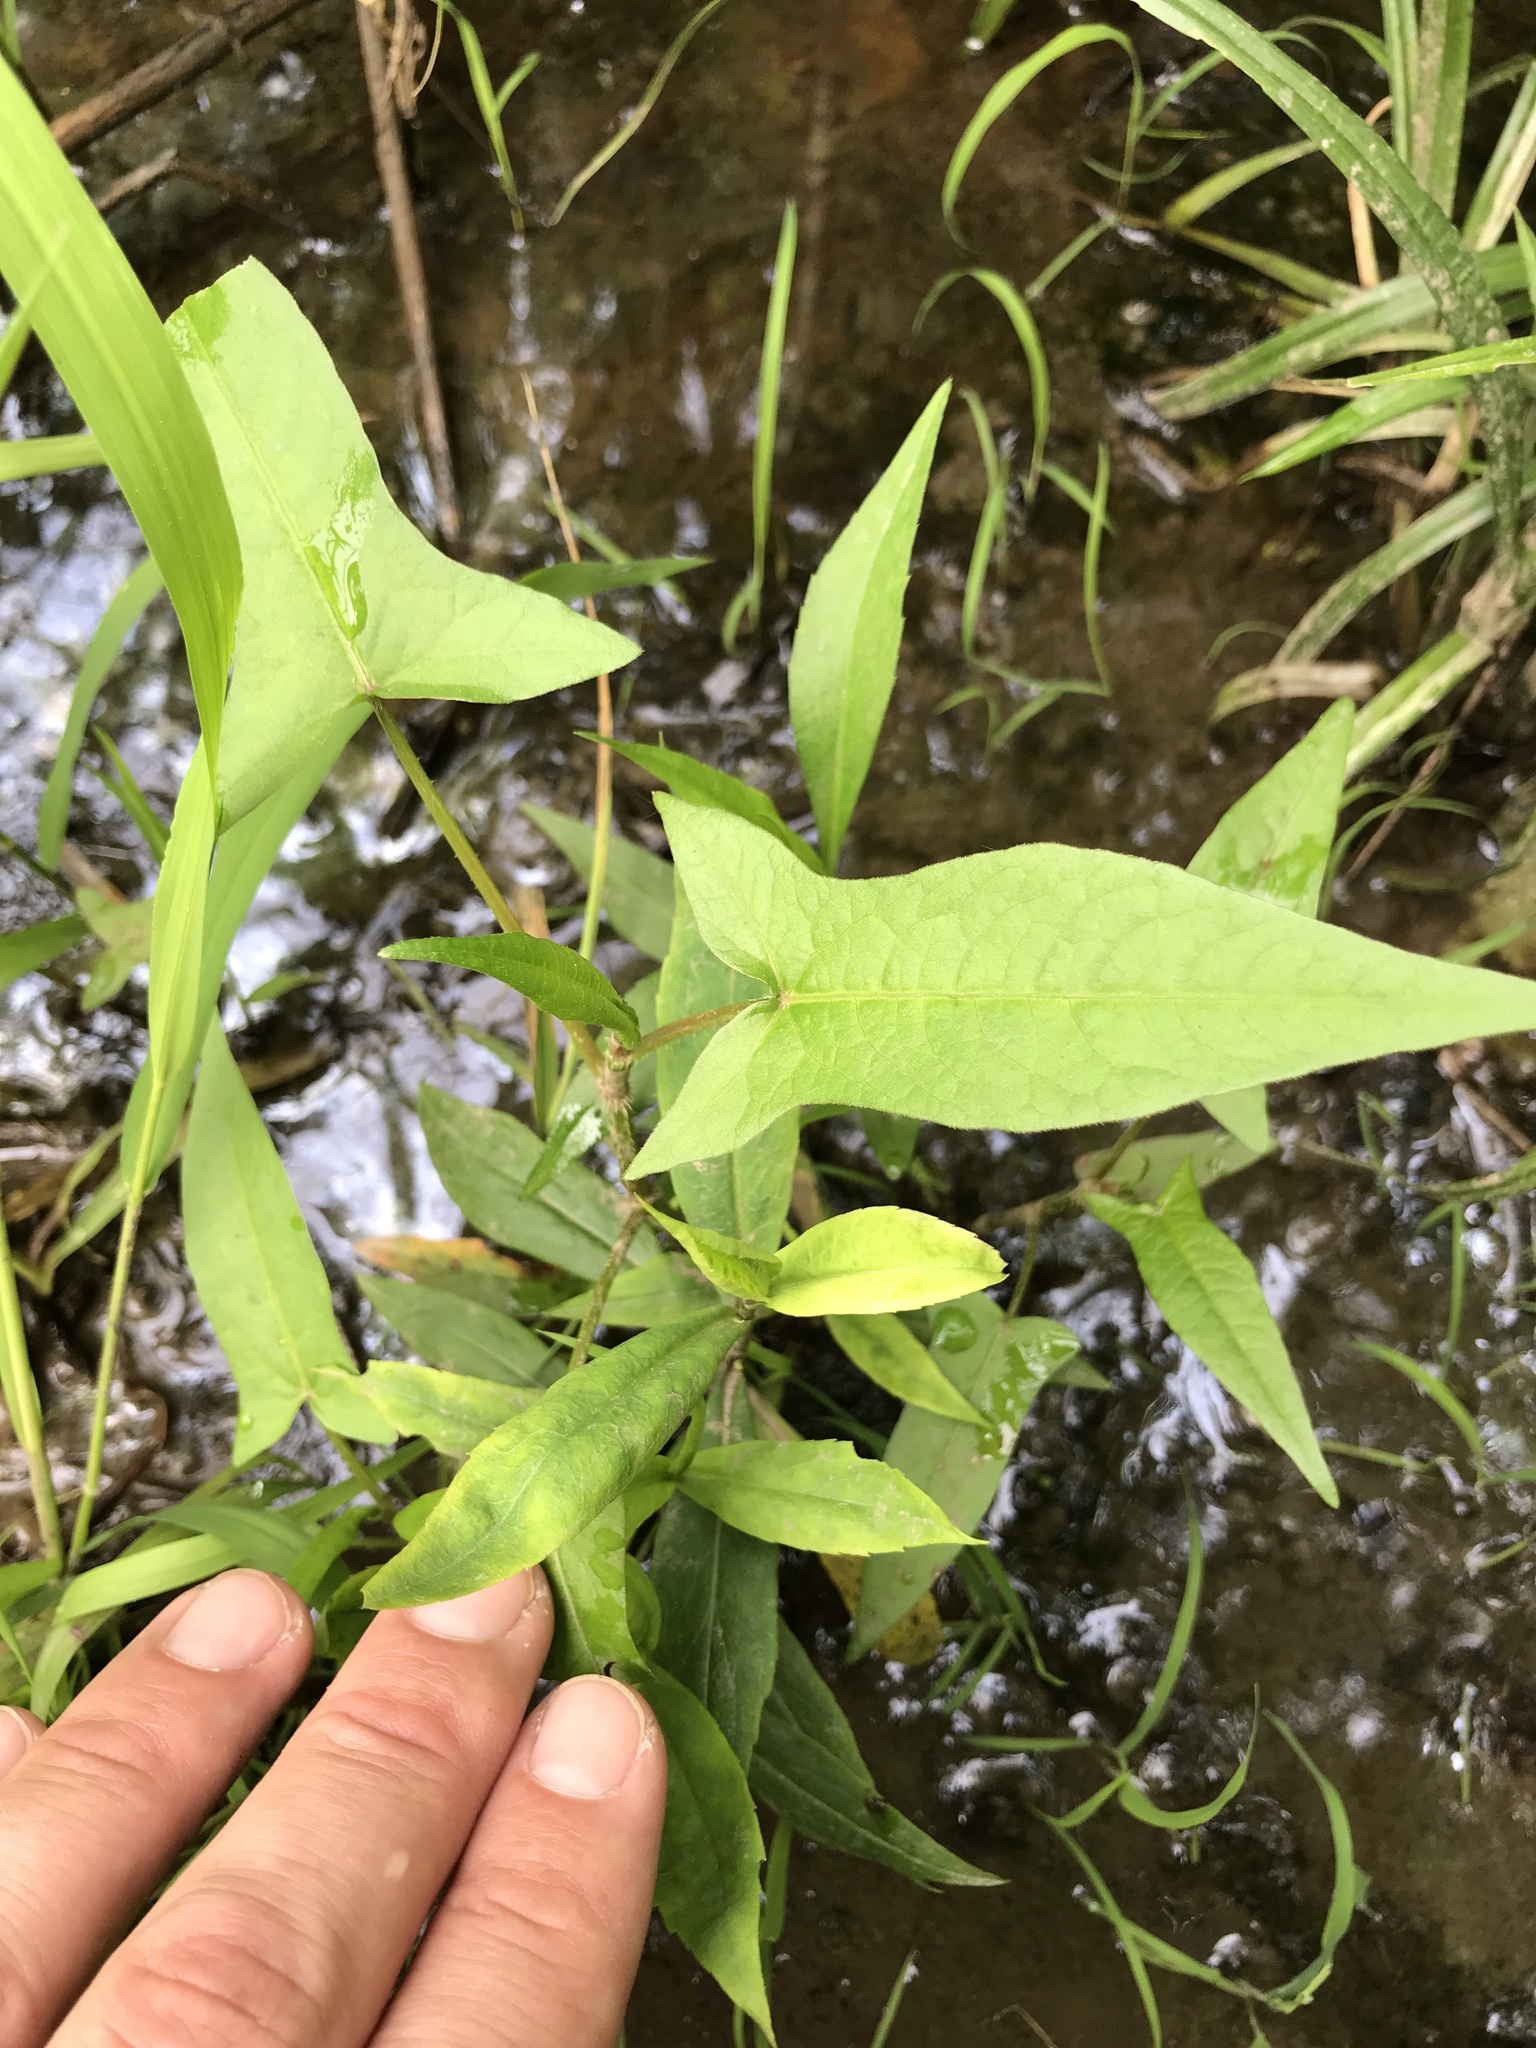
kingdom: Plantae
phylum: Tracheophyta
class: Magnoliopsida
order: Caryophyllales
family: Polygonaceae
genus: Persicaria
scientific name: Persicaria arifolia
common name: Halberd-leaved tear-thumb
